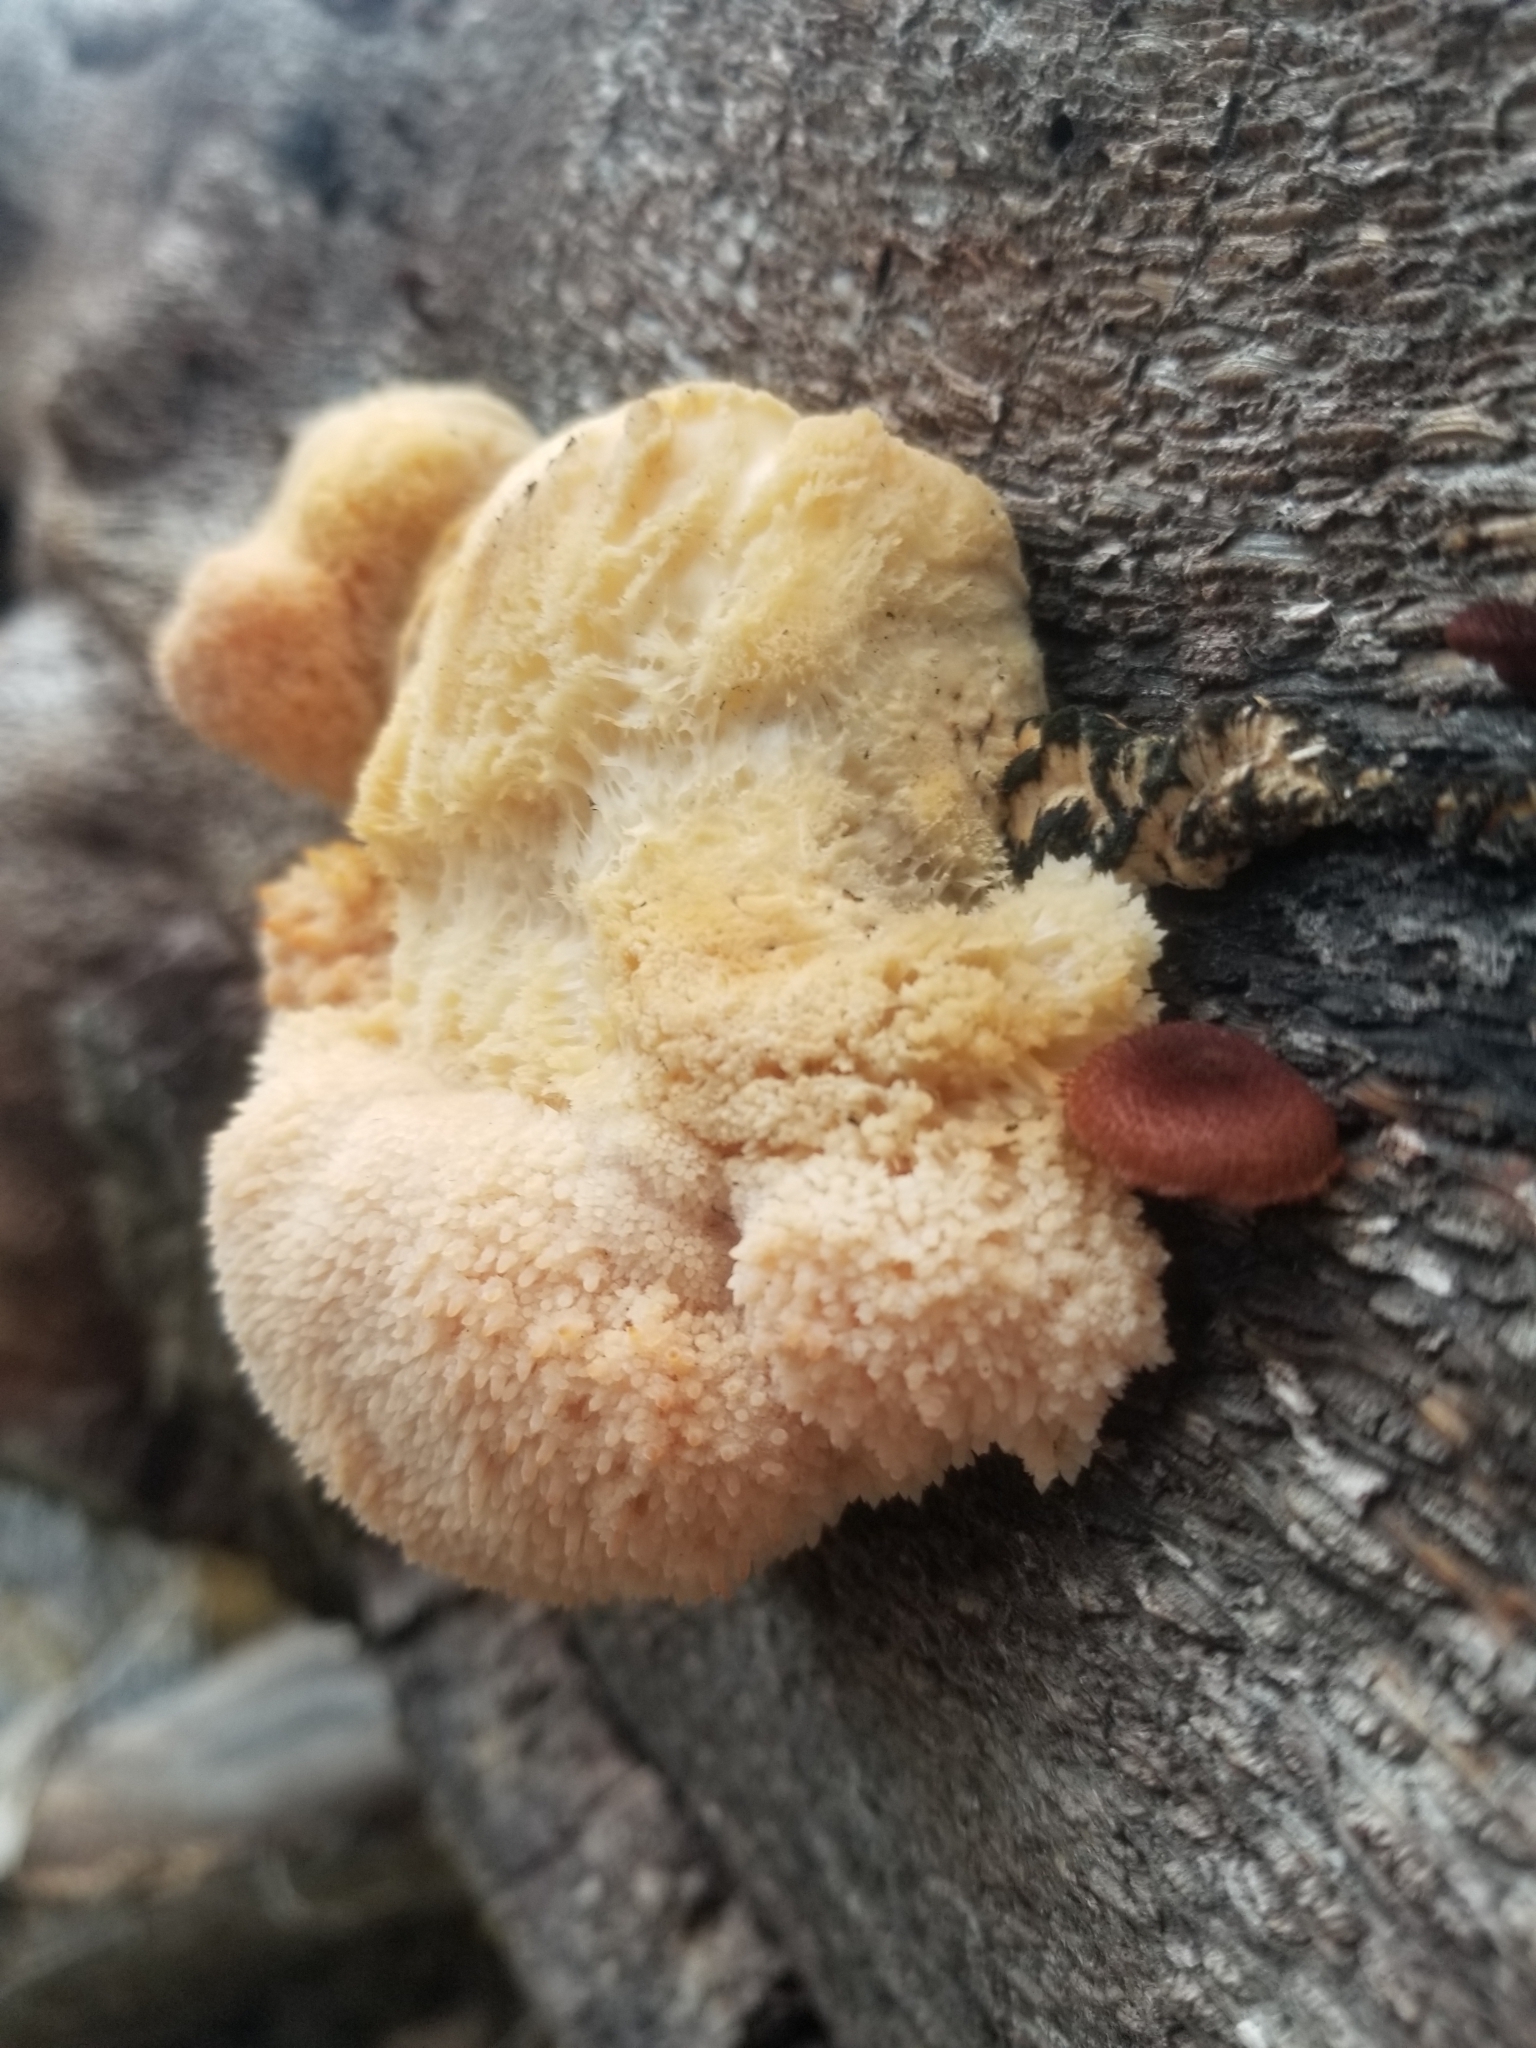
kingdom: Fungi
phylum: Basidiomycota
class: Agaricomycetes
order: Russulales
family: Hericiaceae
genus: Hericium
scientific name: Hericium erinaceus
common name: Bearded tooth
